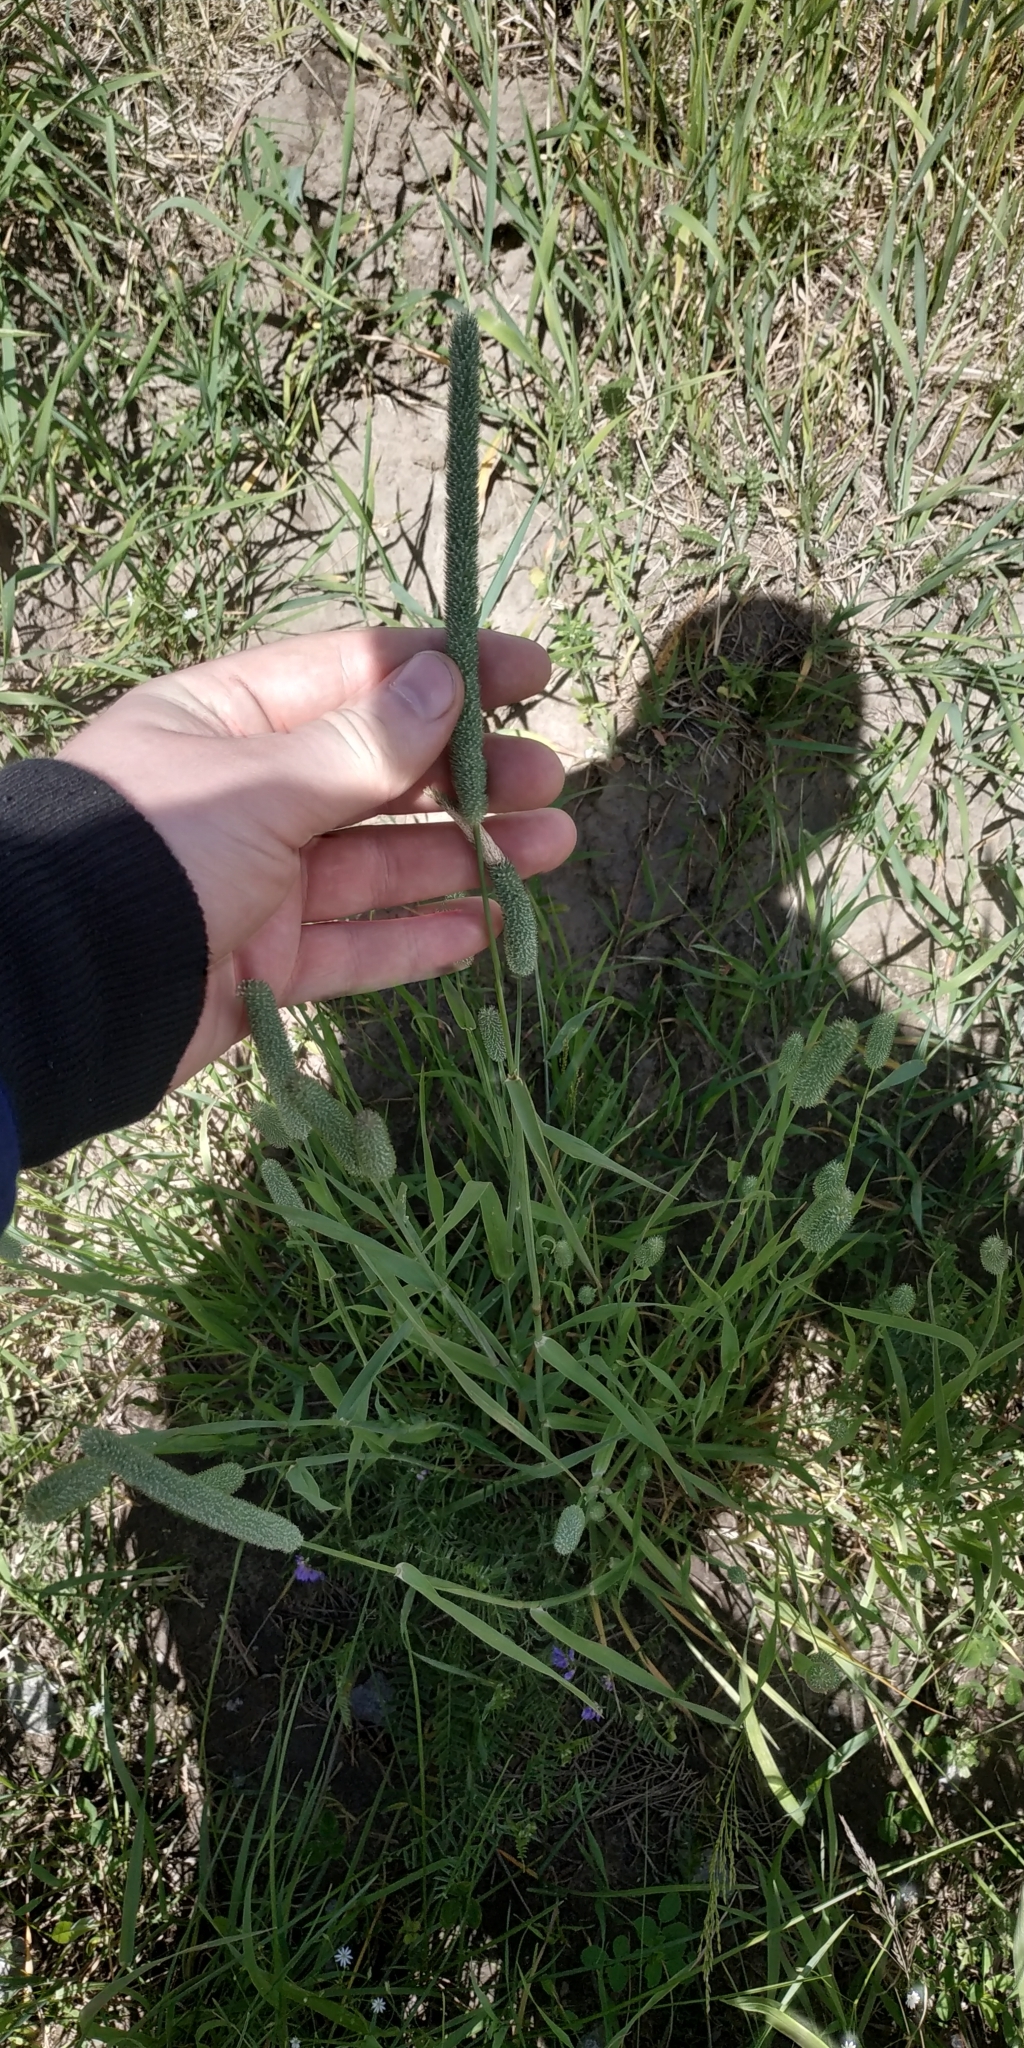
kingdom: Plantae
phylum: Tracheophyta
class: Liliopsida
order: Poales
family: Poaceae
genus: Phleum
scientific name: Phleum pratense
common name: Timothy grass
